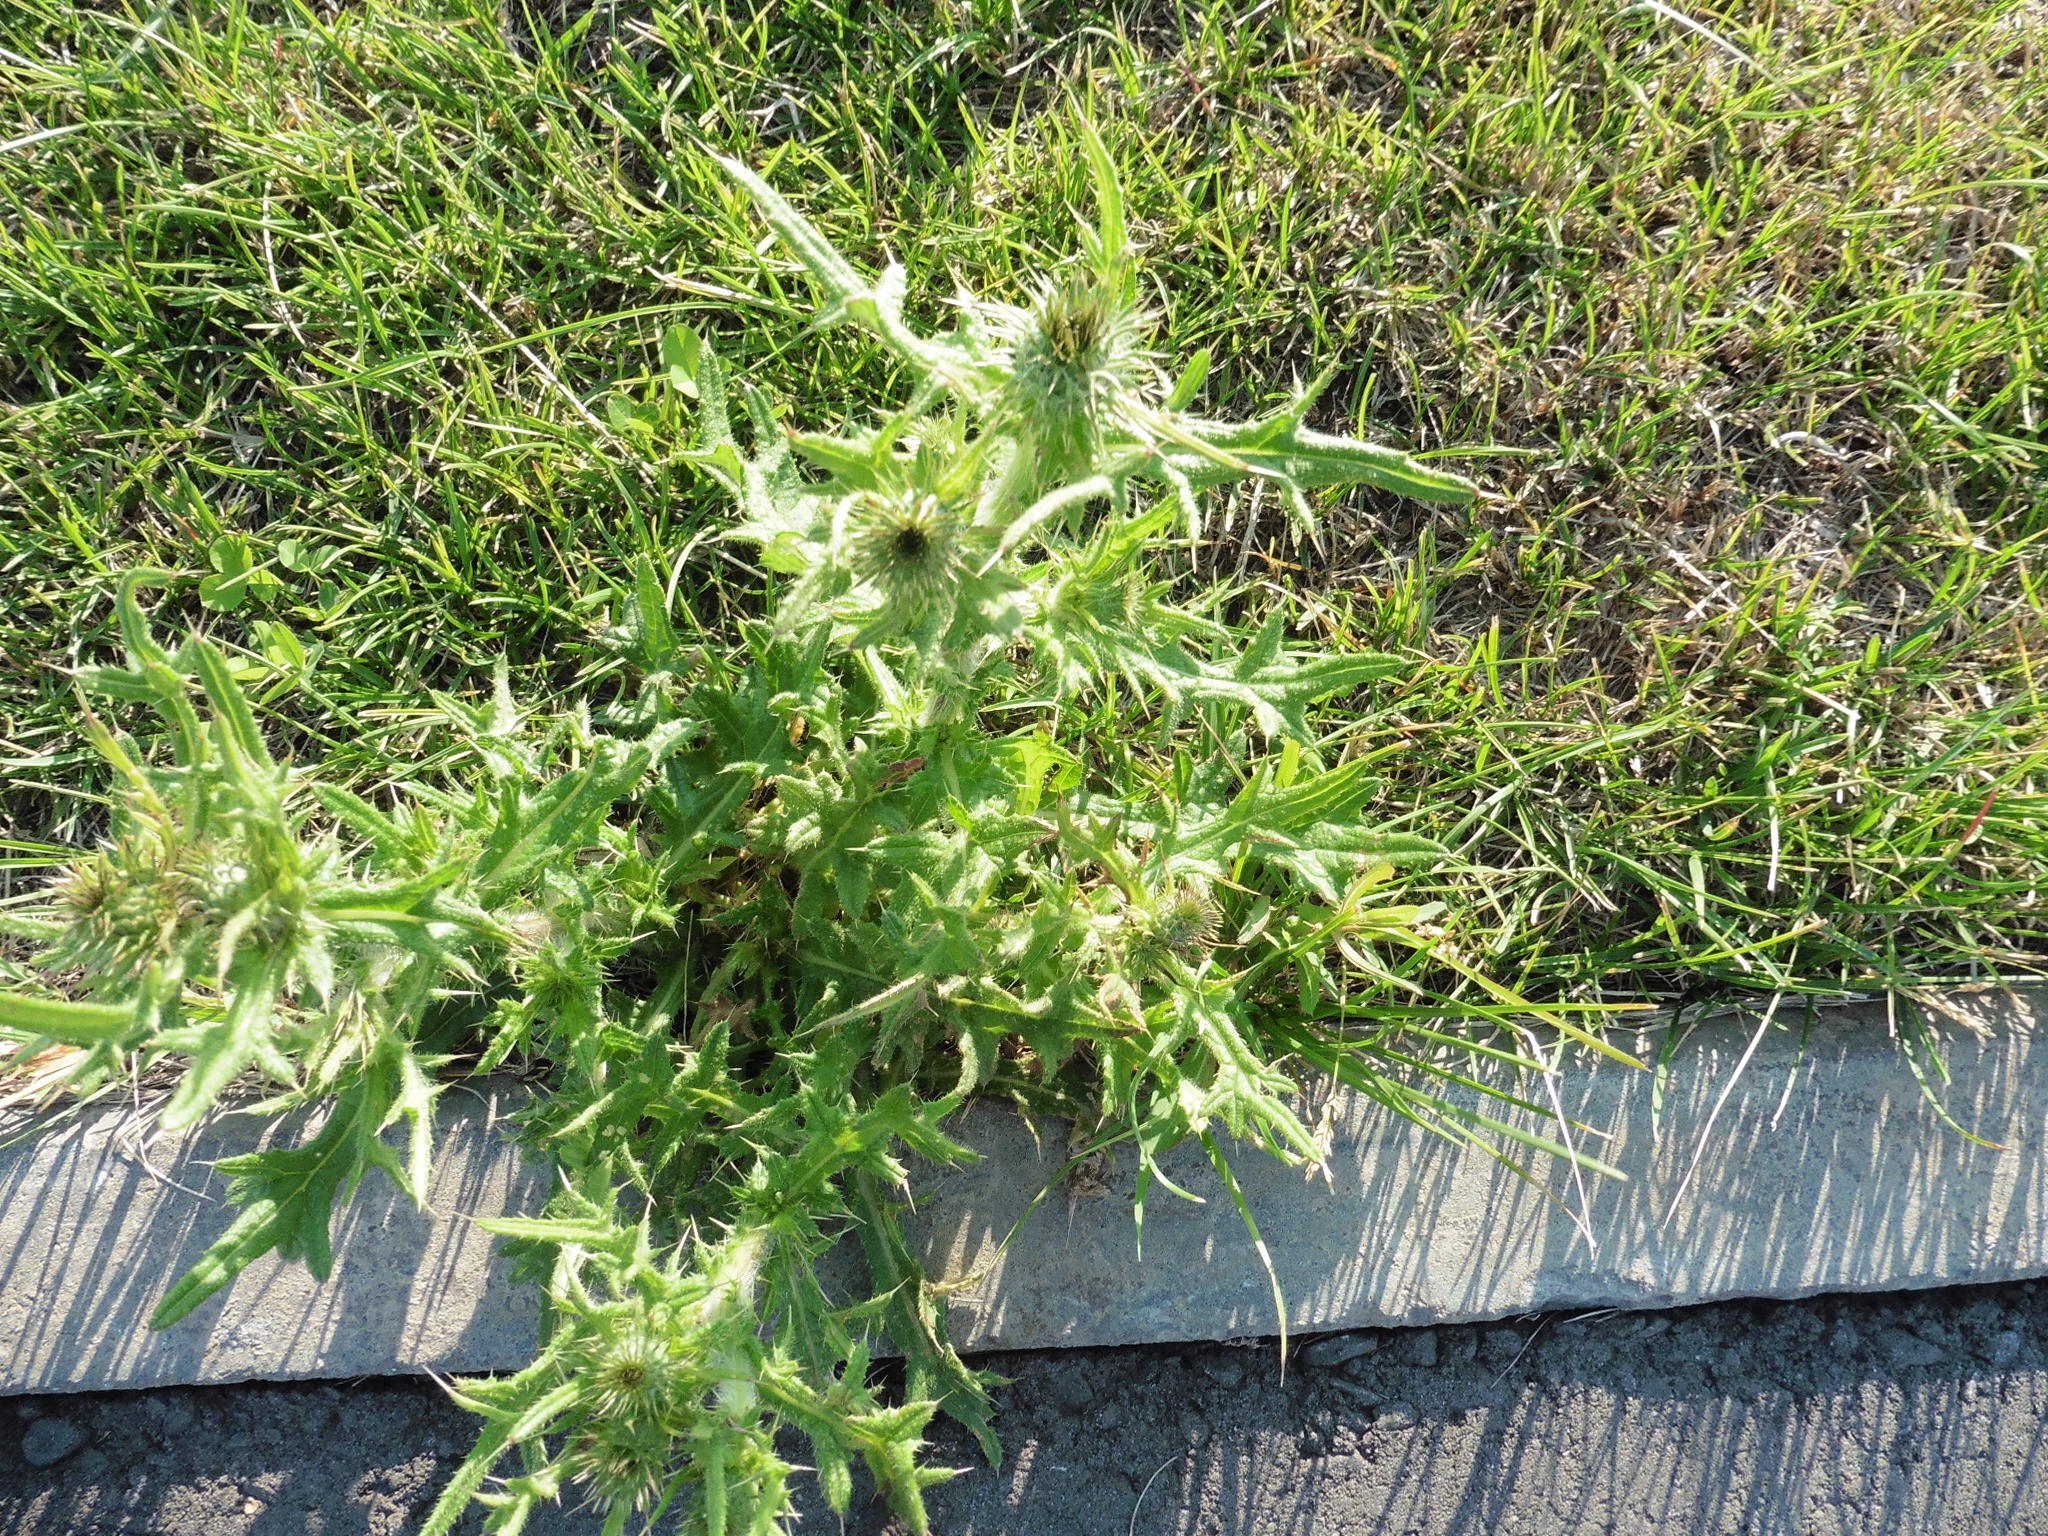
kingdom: Plantae
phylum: Tracheophyta
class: Magnoliopsida
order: Asterales
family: Asteraceae
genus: Cirsium
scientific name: Cirsium vulgare
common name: Bull thistle
